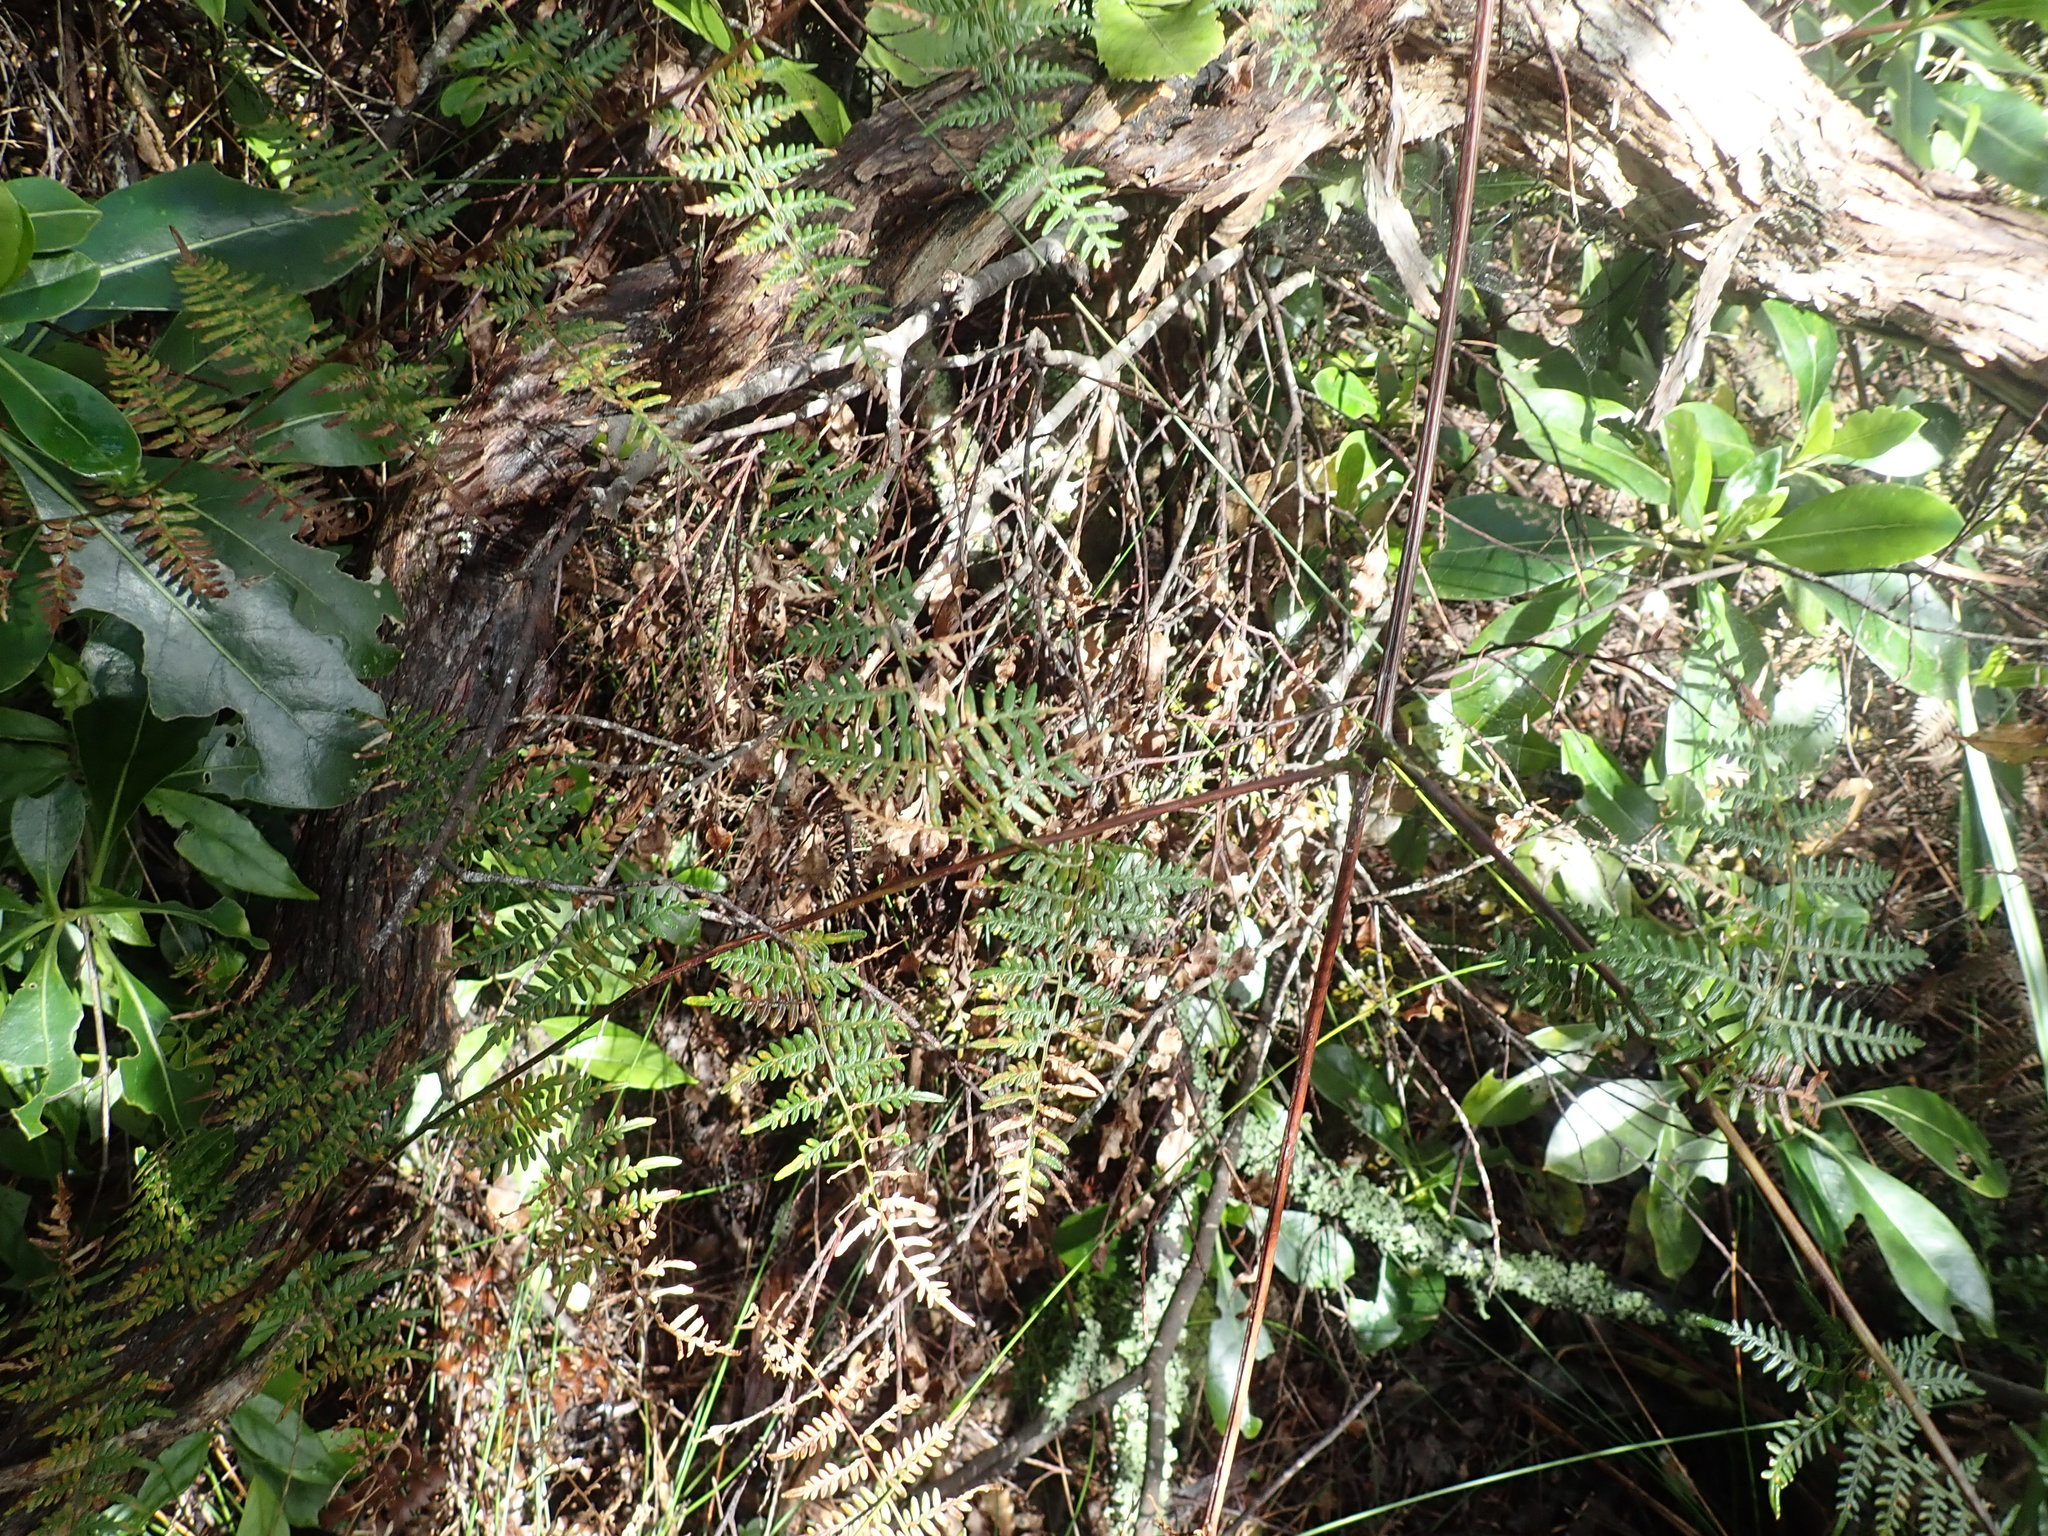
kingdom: Plantae
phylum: Tracheophyta
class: Polypodiopsida
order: Polypodiales
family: Dennstaedtiaceae
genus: Pteridium
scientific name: Pteridium esculentum
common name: Bracken fern
